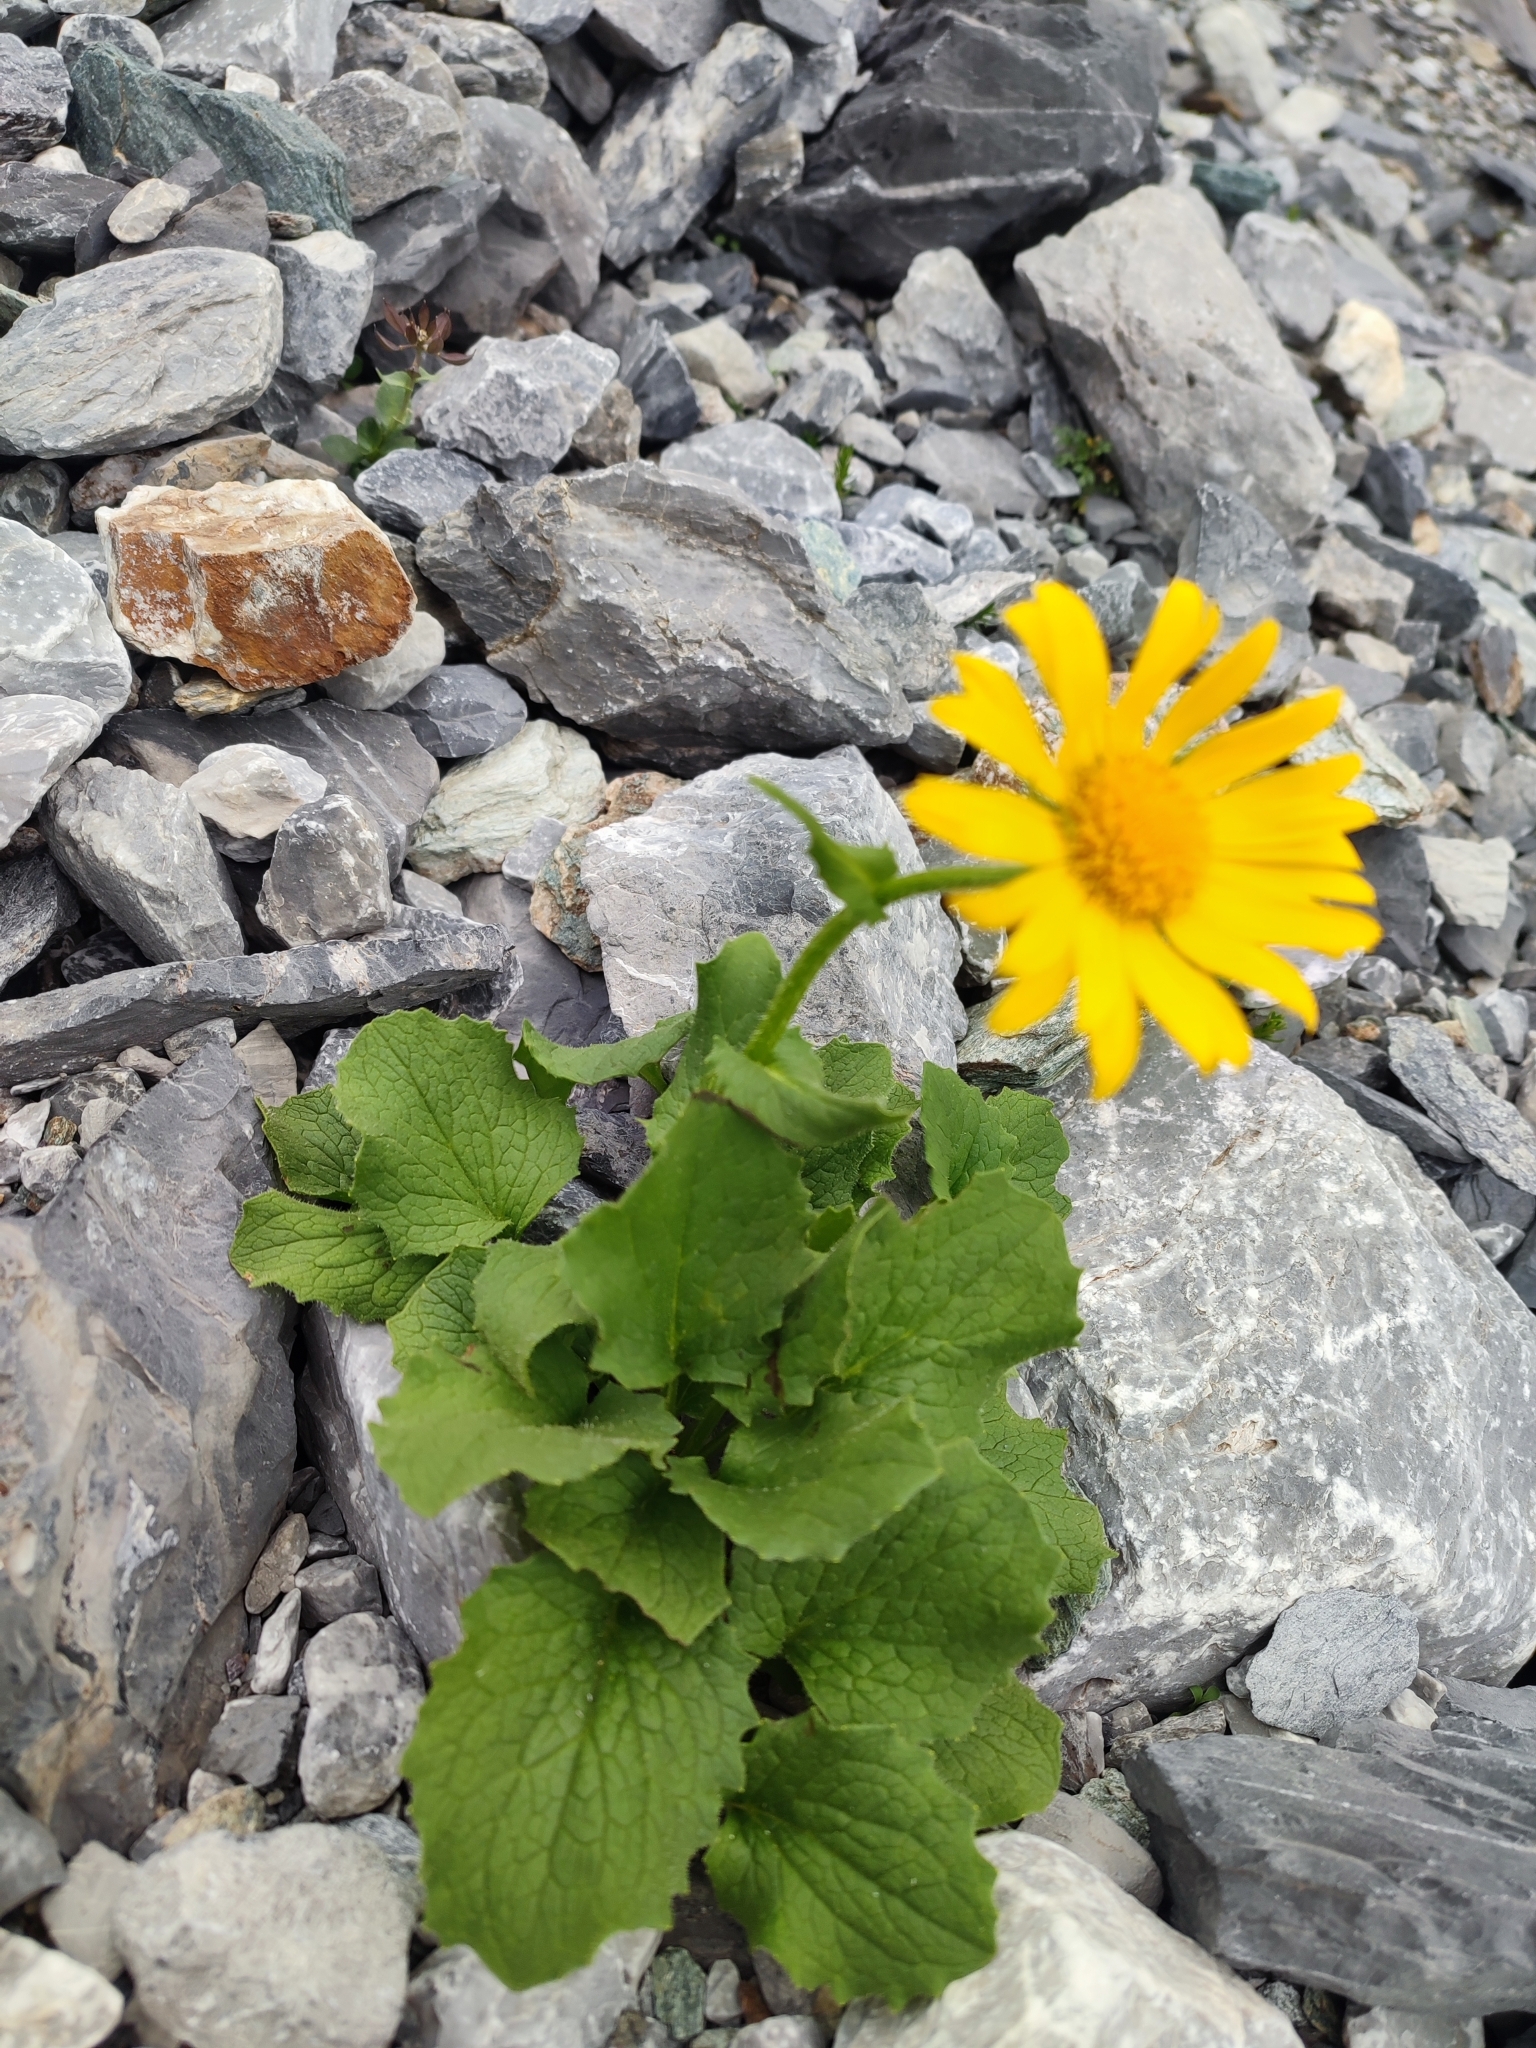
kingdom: Plantae
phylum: Tracheophyta
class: Magnoliopsida
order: Asterales
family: Asteraceae
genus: Doronicum
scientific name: Doronicum grandiflorum
